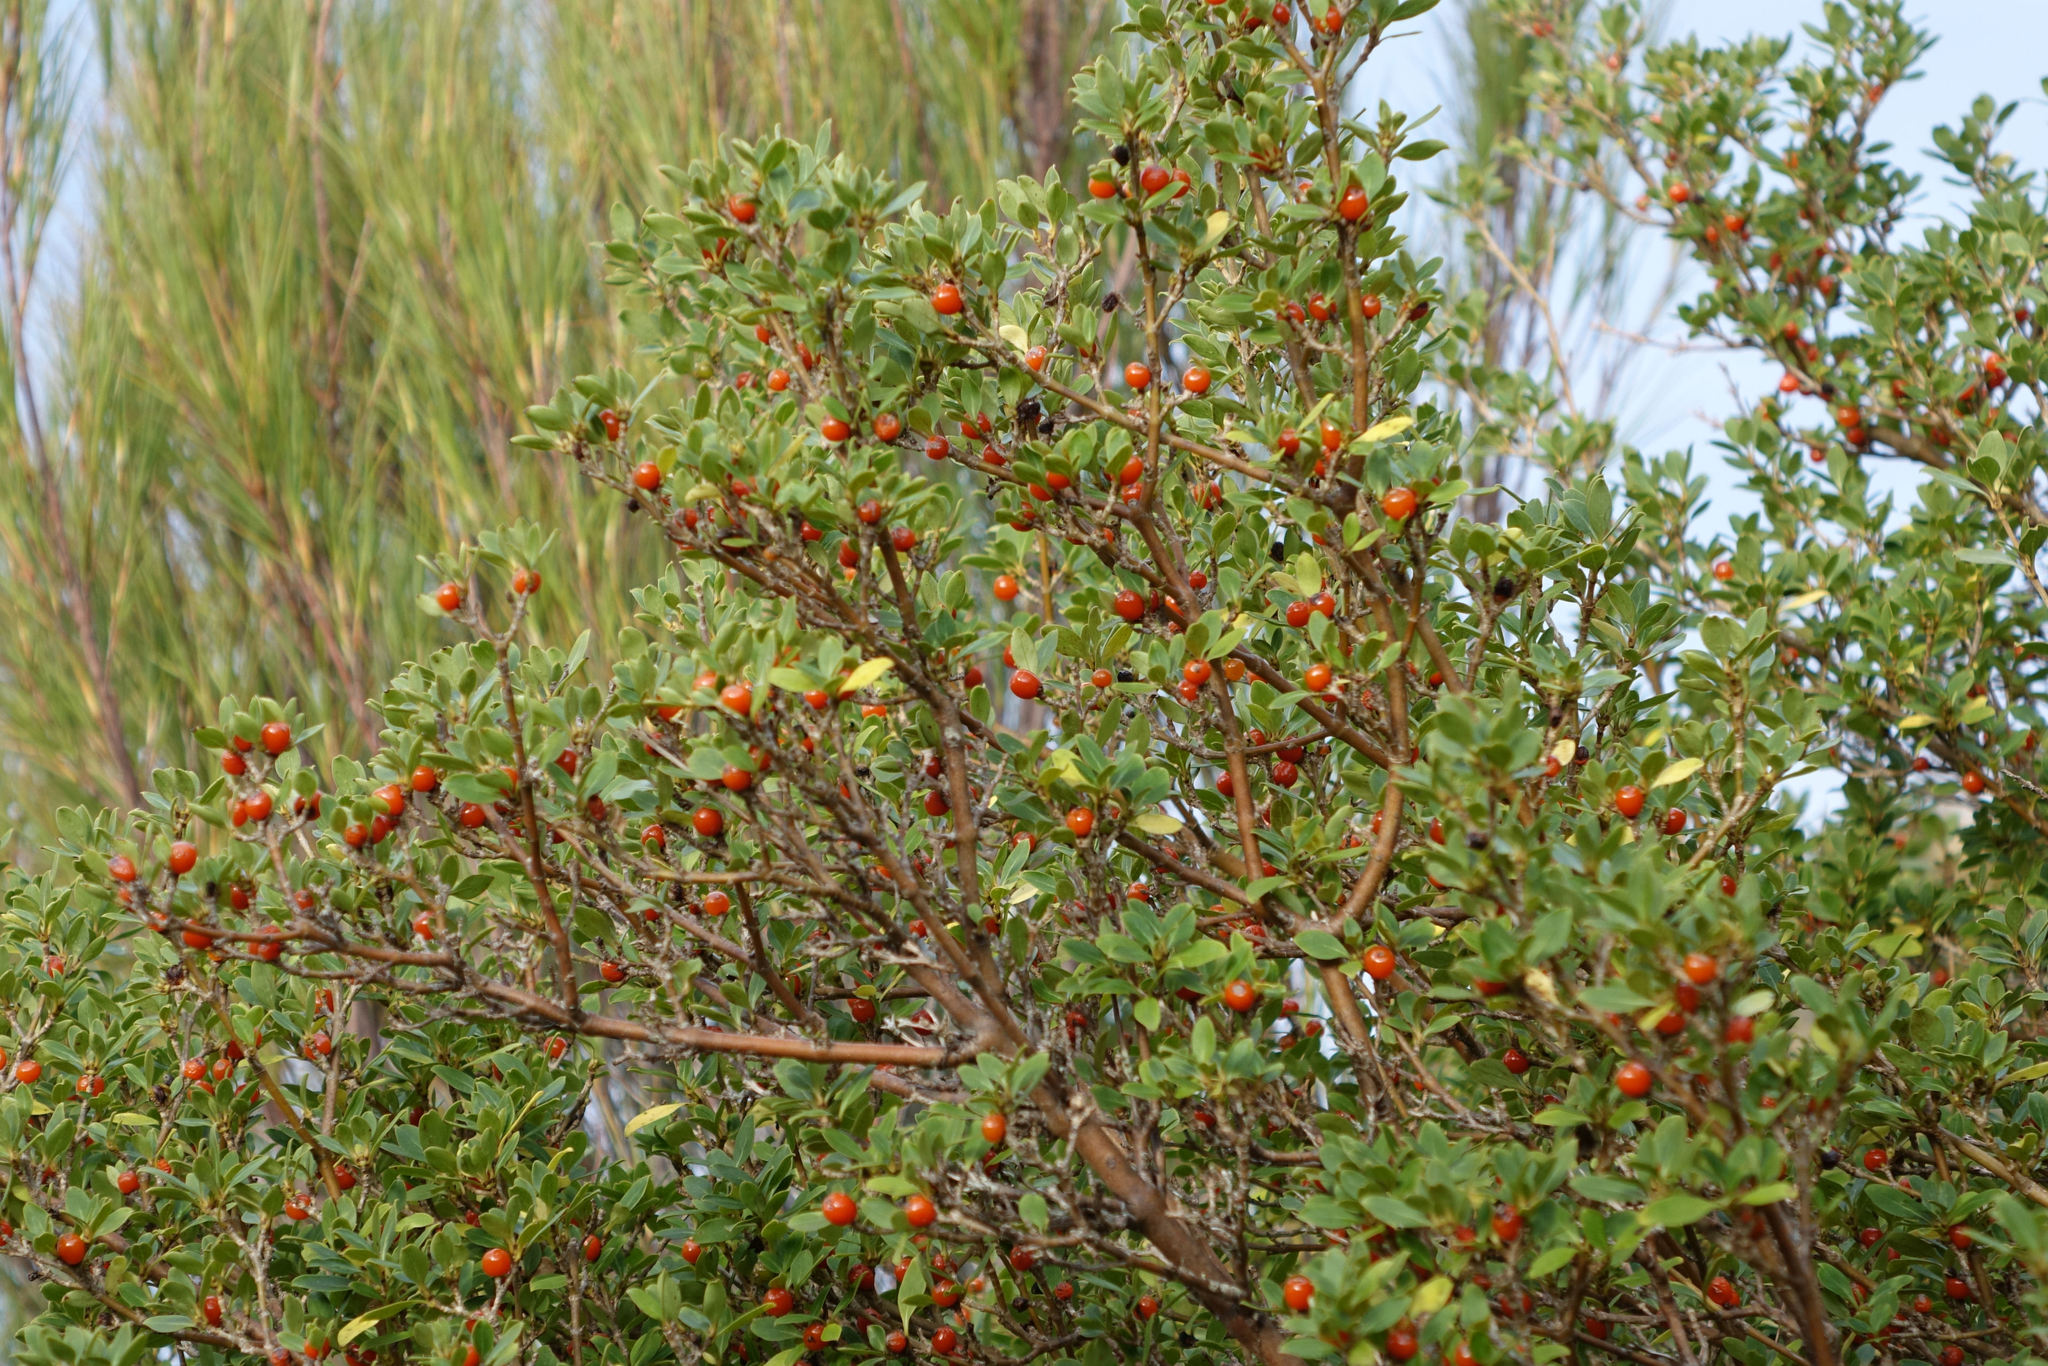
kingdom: Plantae
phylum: Tracheophyta
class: Magnoliopsida
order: Gentianales
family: Rubiaceae
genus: Coprosma
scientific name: Coprosma foetidissima
